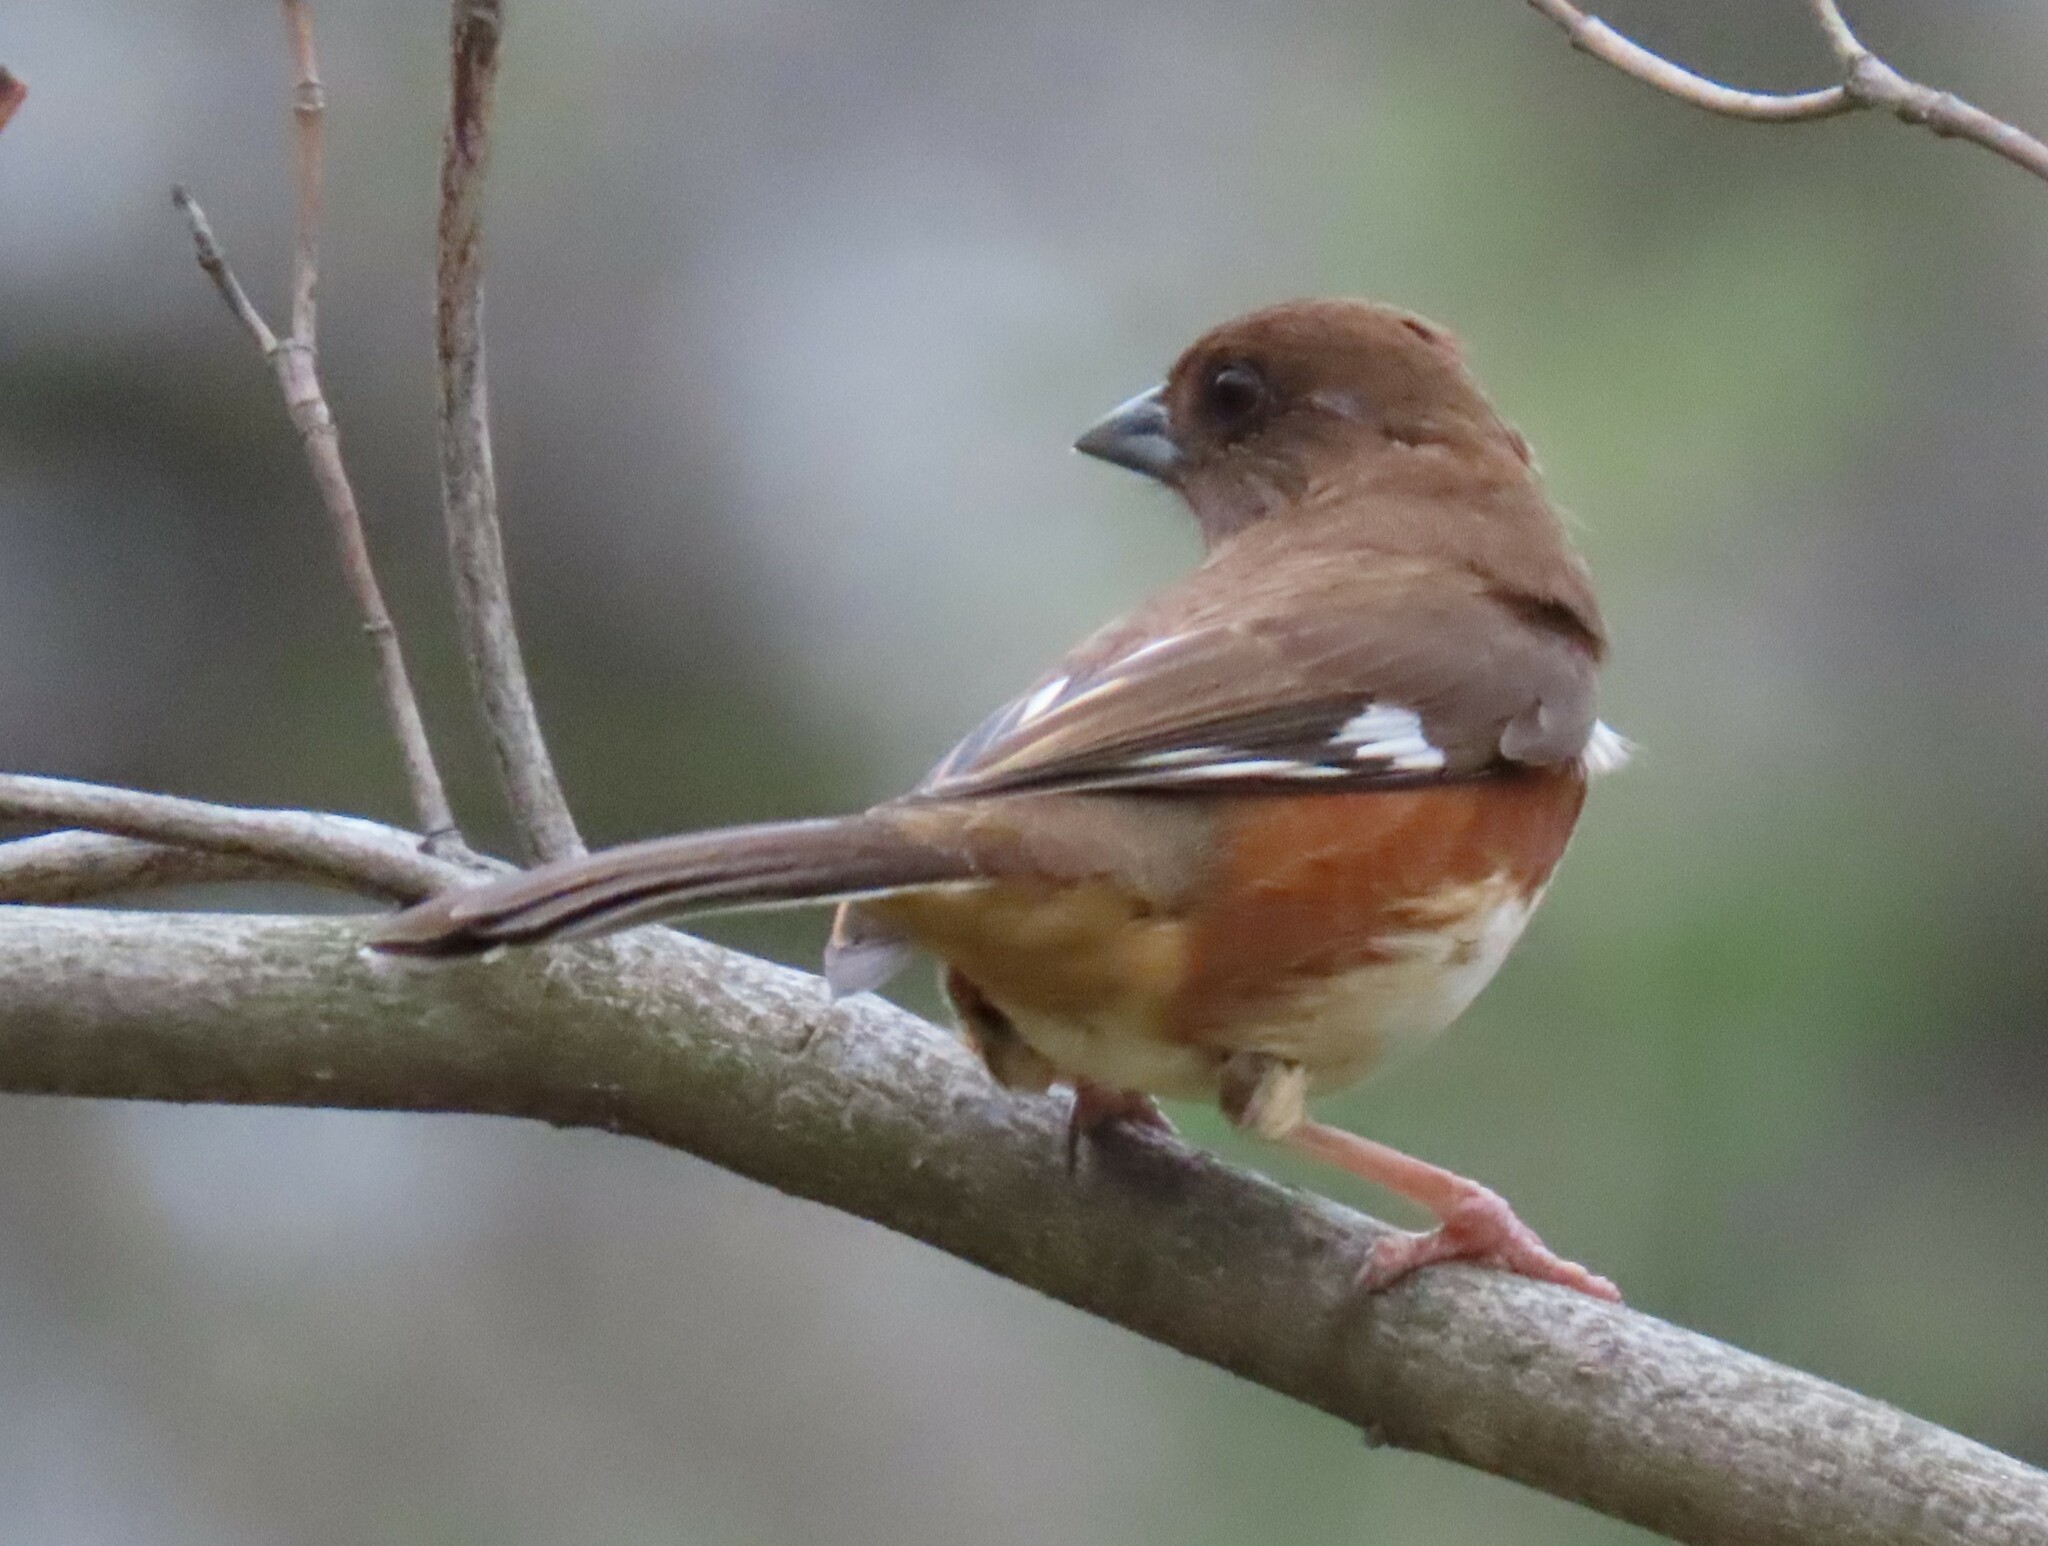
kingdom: Animalia
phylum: Chordata
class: Aves
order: Passeriformes
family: Passerellidae
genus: Pipilo
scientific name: Pipilo erythrophthalmus
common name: Eastern towhee
